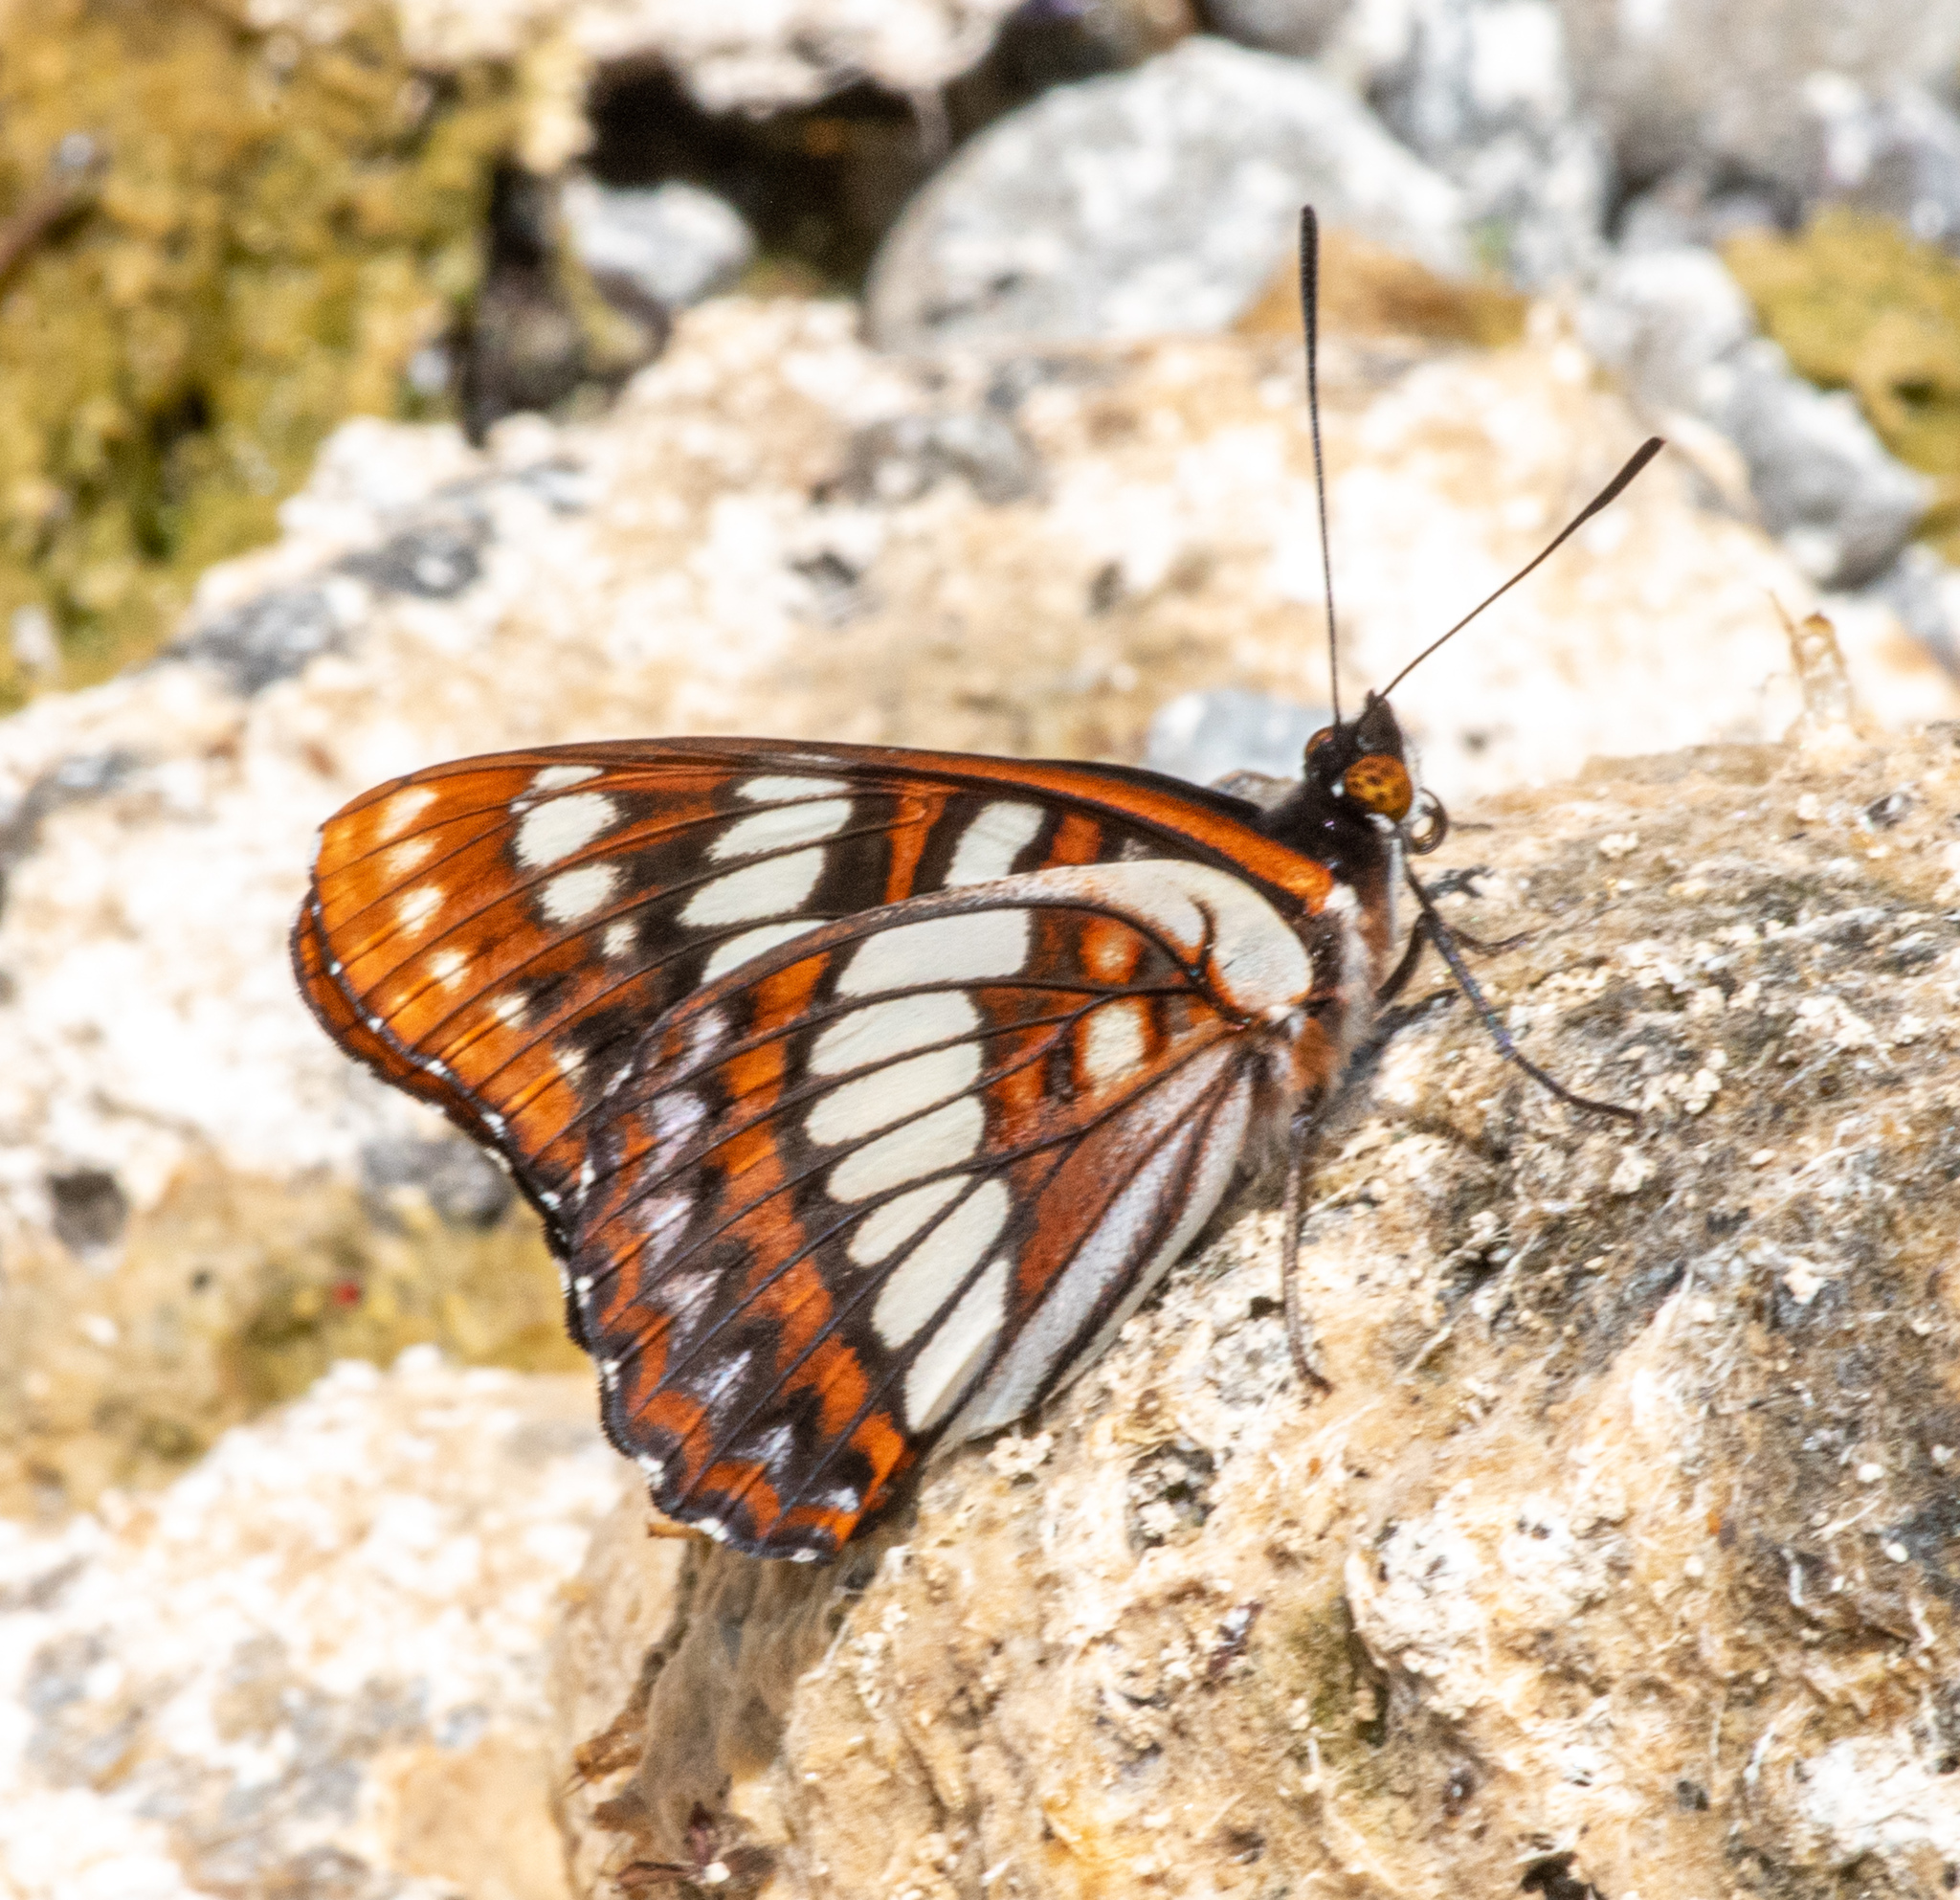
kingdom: Animalia
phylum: Arthropoda
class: Insecta
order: Lepidoptera
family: Nymphalidae
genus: Limenitis
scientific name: Limenitis lorquini
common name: Lorquin's admiral
